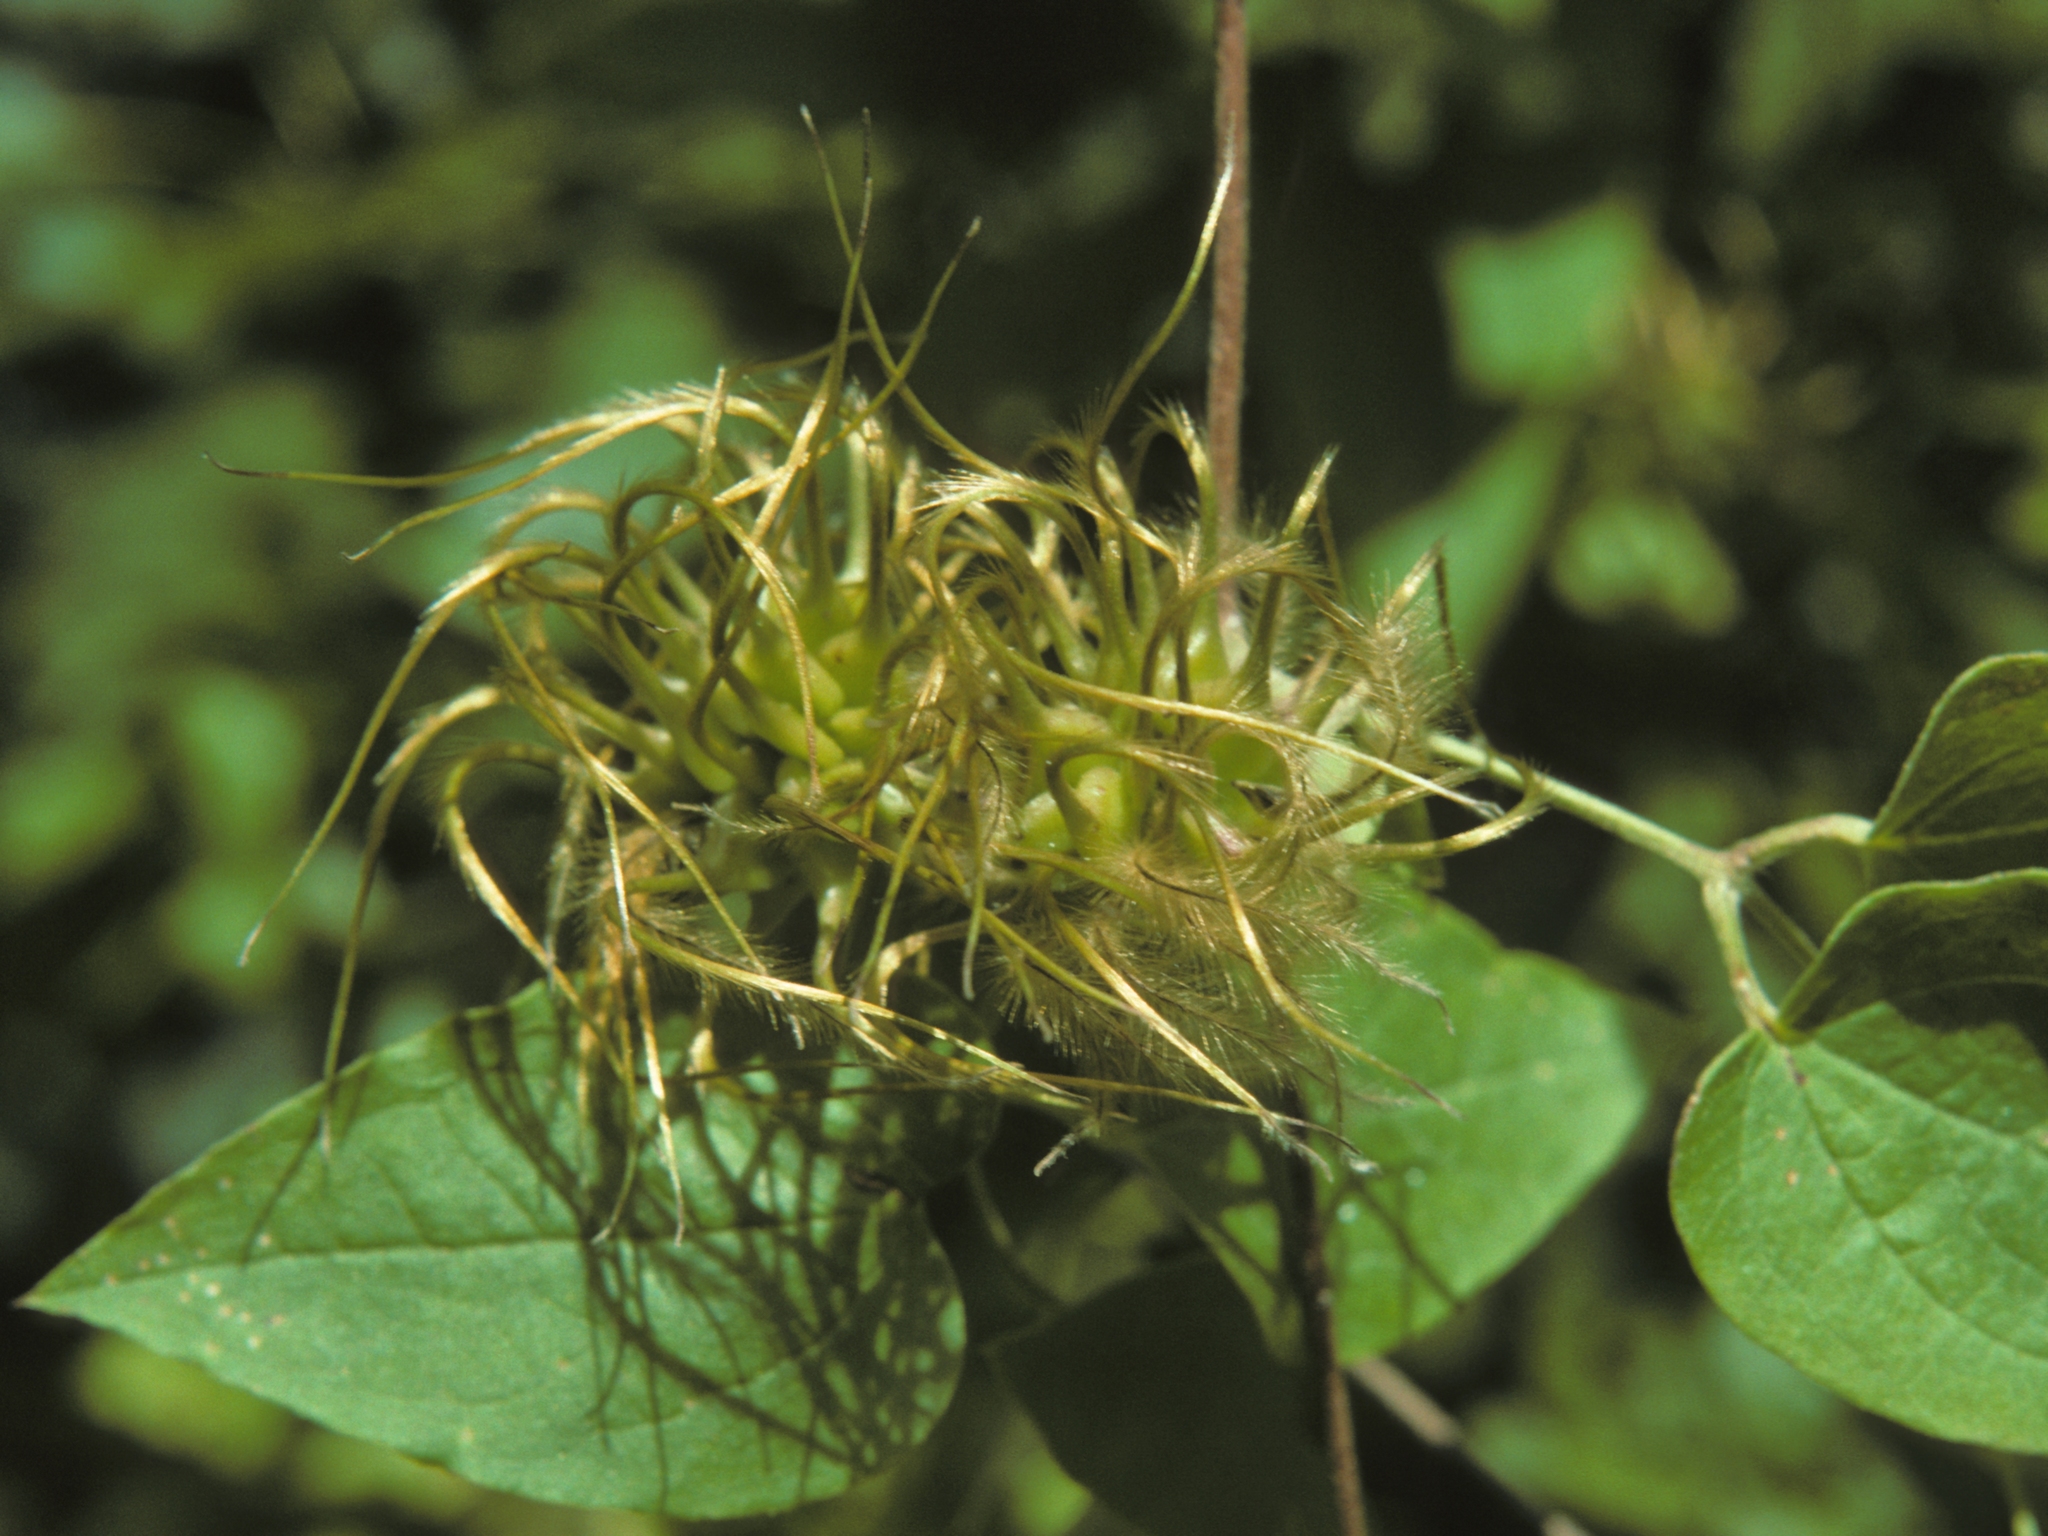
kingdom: Plantae
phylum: Tracheophyta
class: Magnoliopsida
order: Ranunculales
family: Ranunculaceae
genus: Clematis
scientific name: Clematis morefieldii
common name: Morefield's clematis
